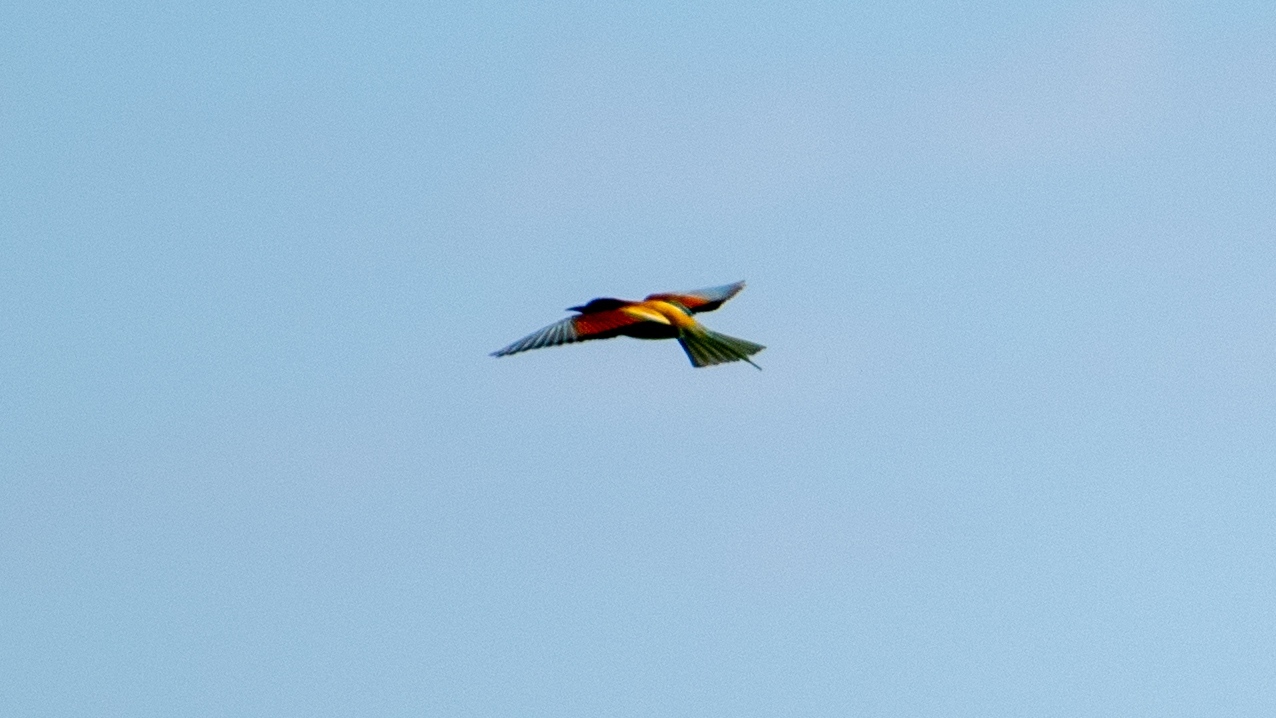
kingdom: Animalia
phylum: Chordata
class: Aves
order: Coraciiformes
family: Meropidae
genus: Merops
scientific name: Merops apiaster
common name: European bee-eater
